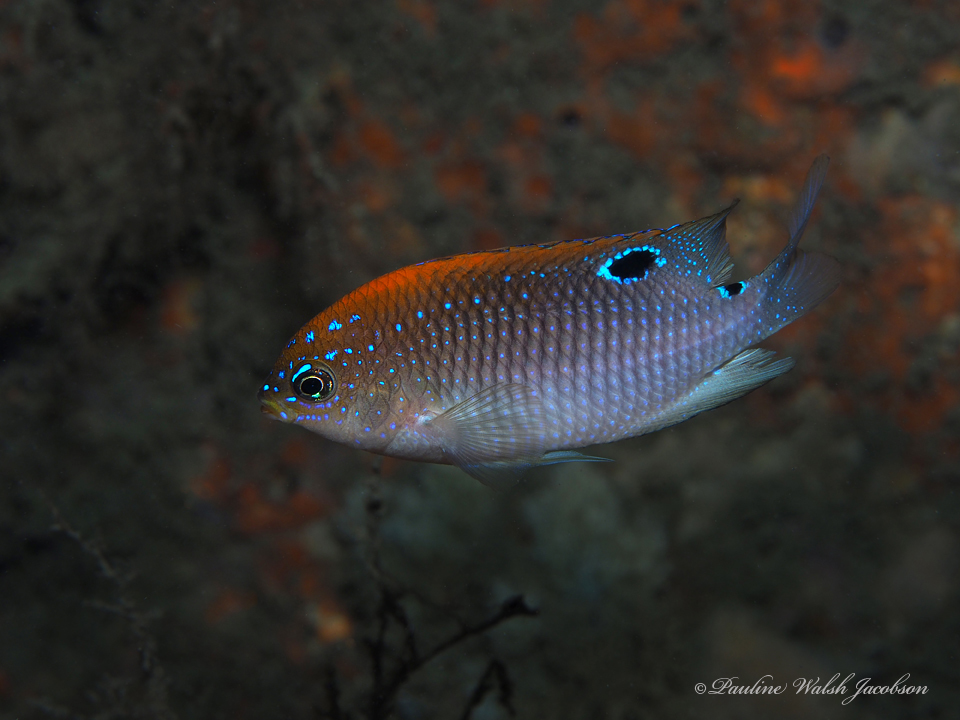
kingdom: Animalia
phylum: Chordata
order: Perciformes
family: Pomacentridae
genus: Stegastes
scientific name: Stegastes adustus
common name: Dusky damselfish
